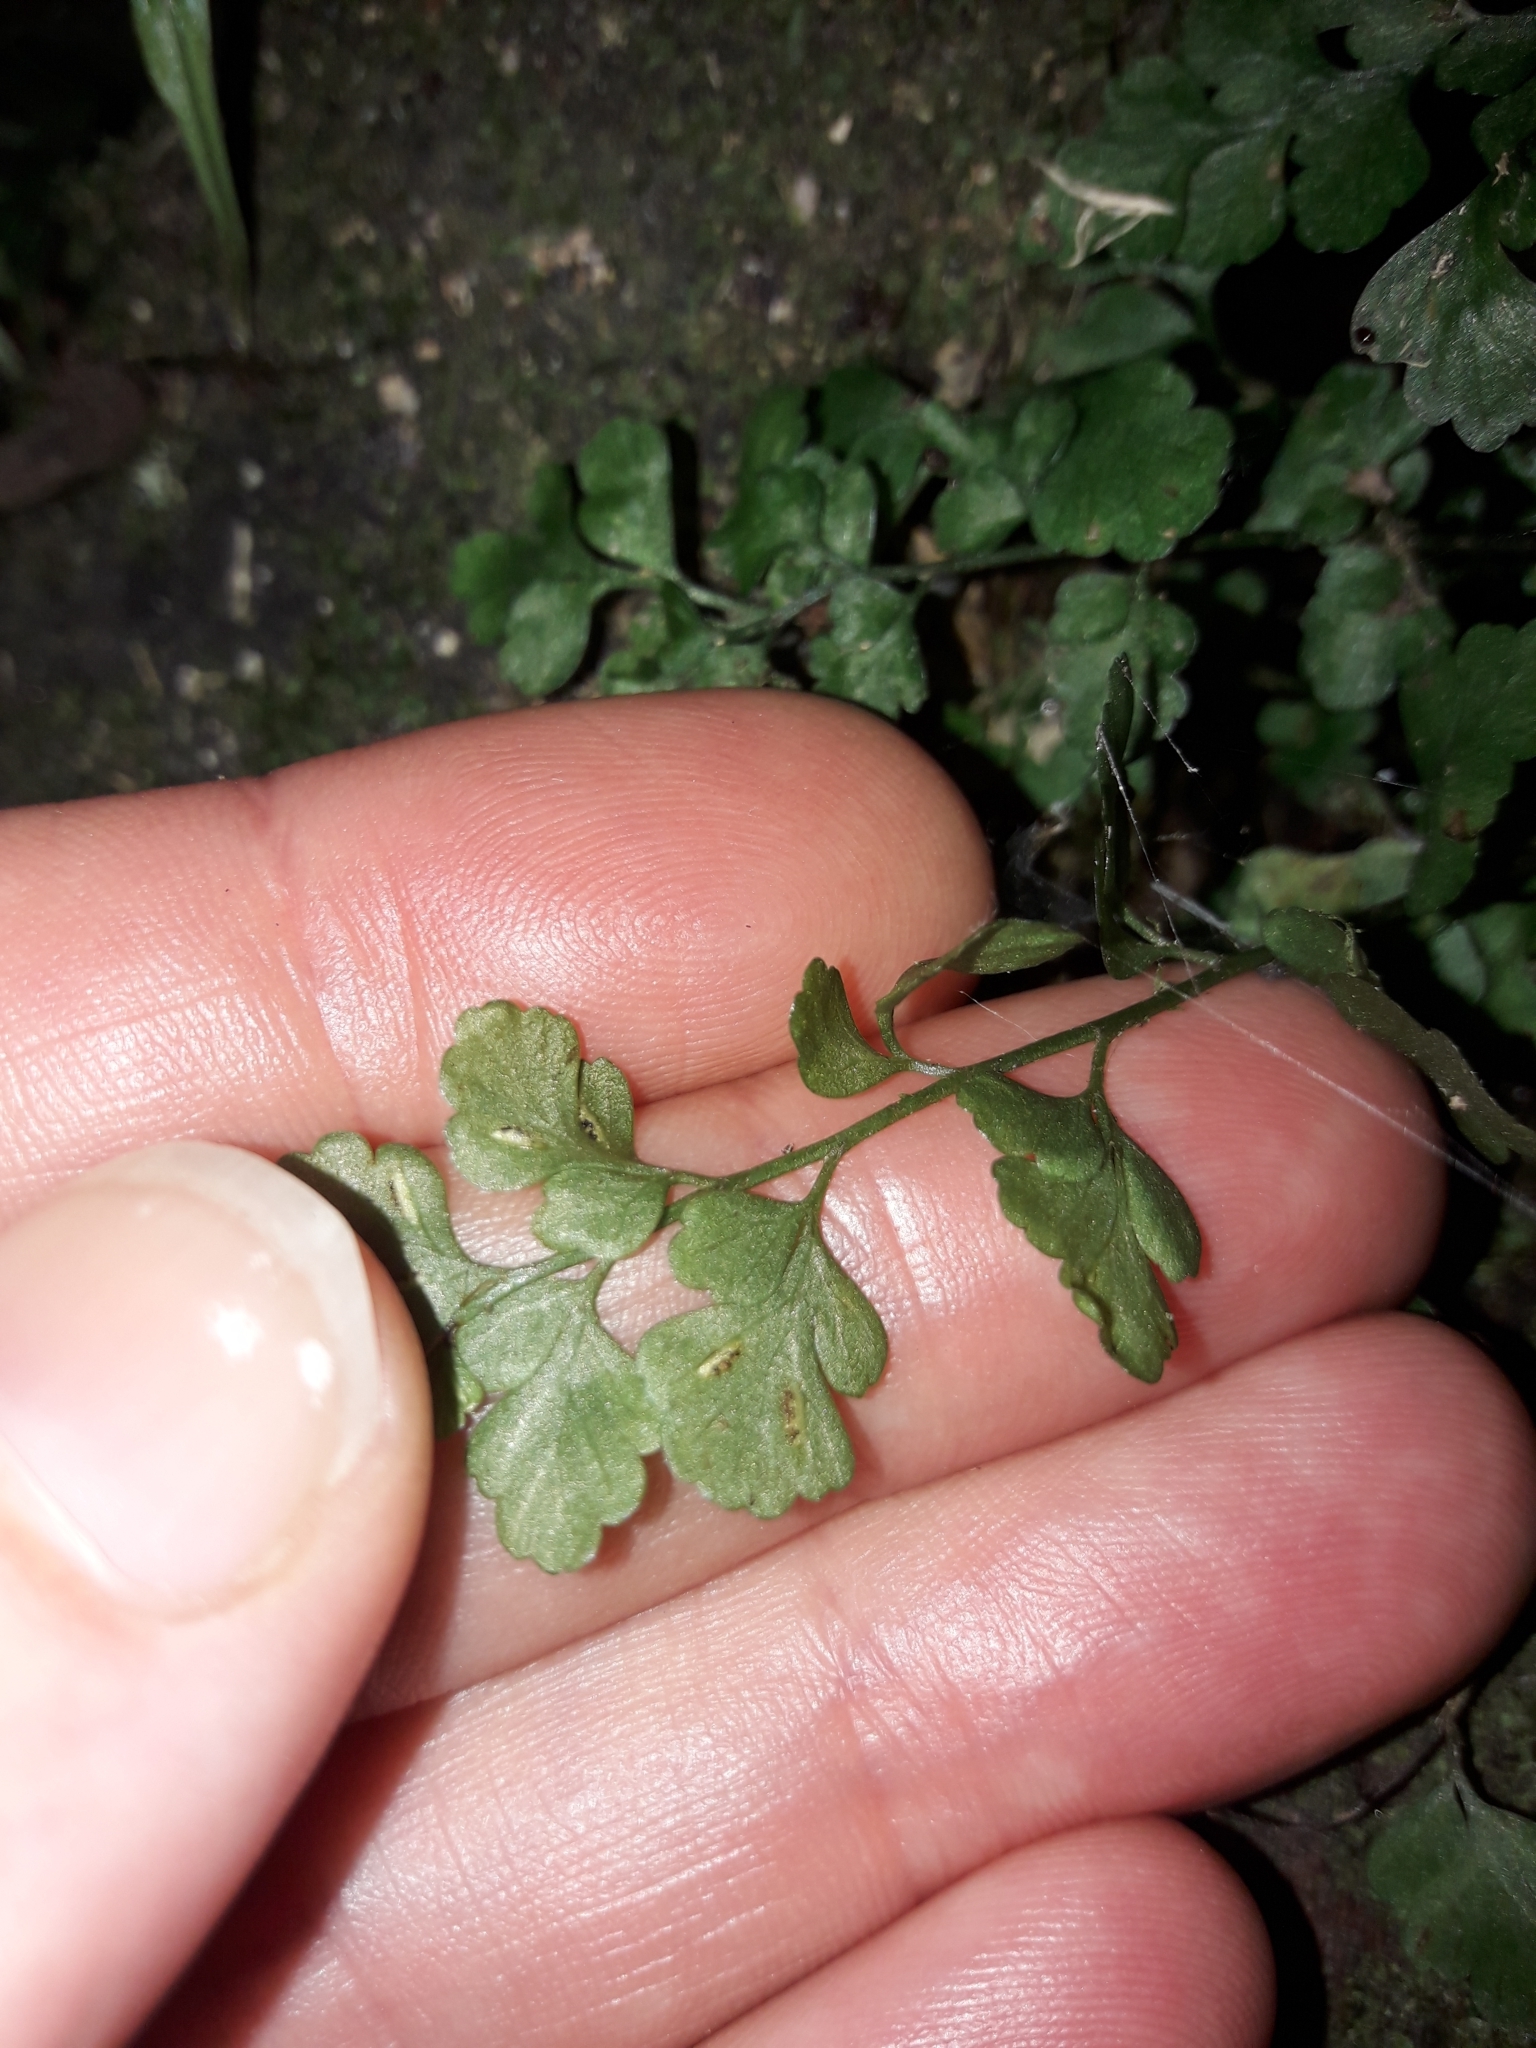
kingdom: Plantae
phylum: Tracheophyta
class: Polypodiopsida
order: Polypodiales
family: Aspleniaceae
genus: Asplenium
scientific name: Asplenium hookerianum
